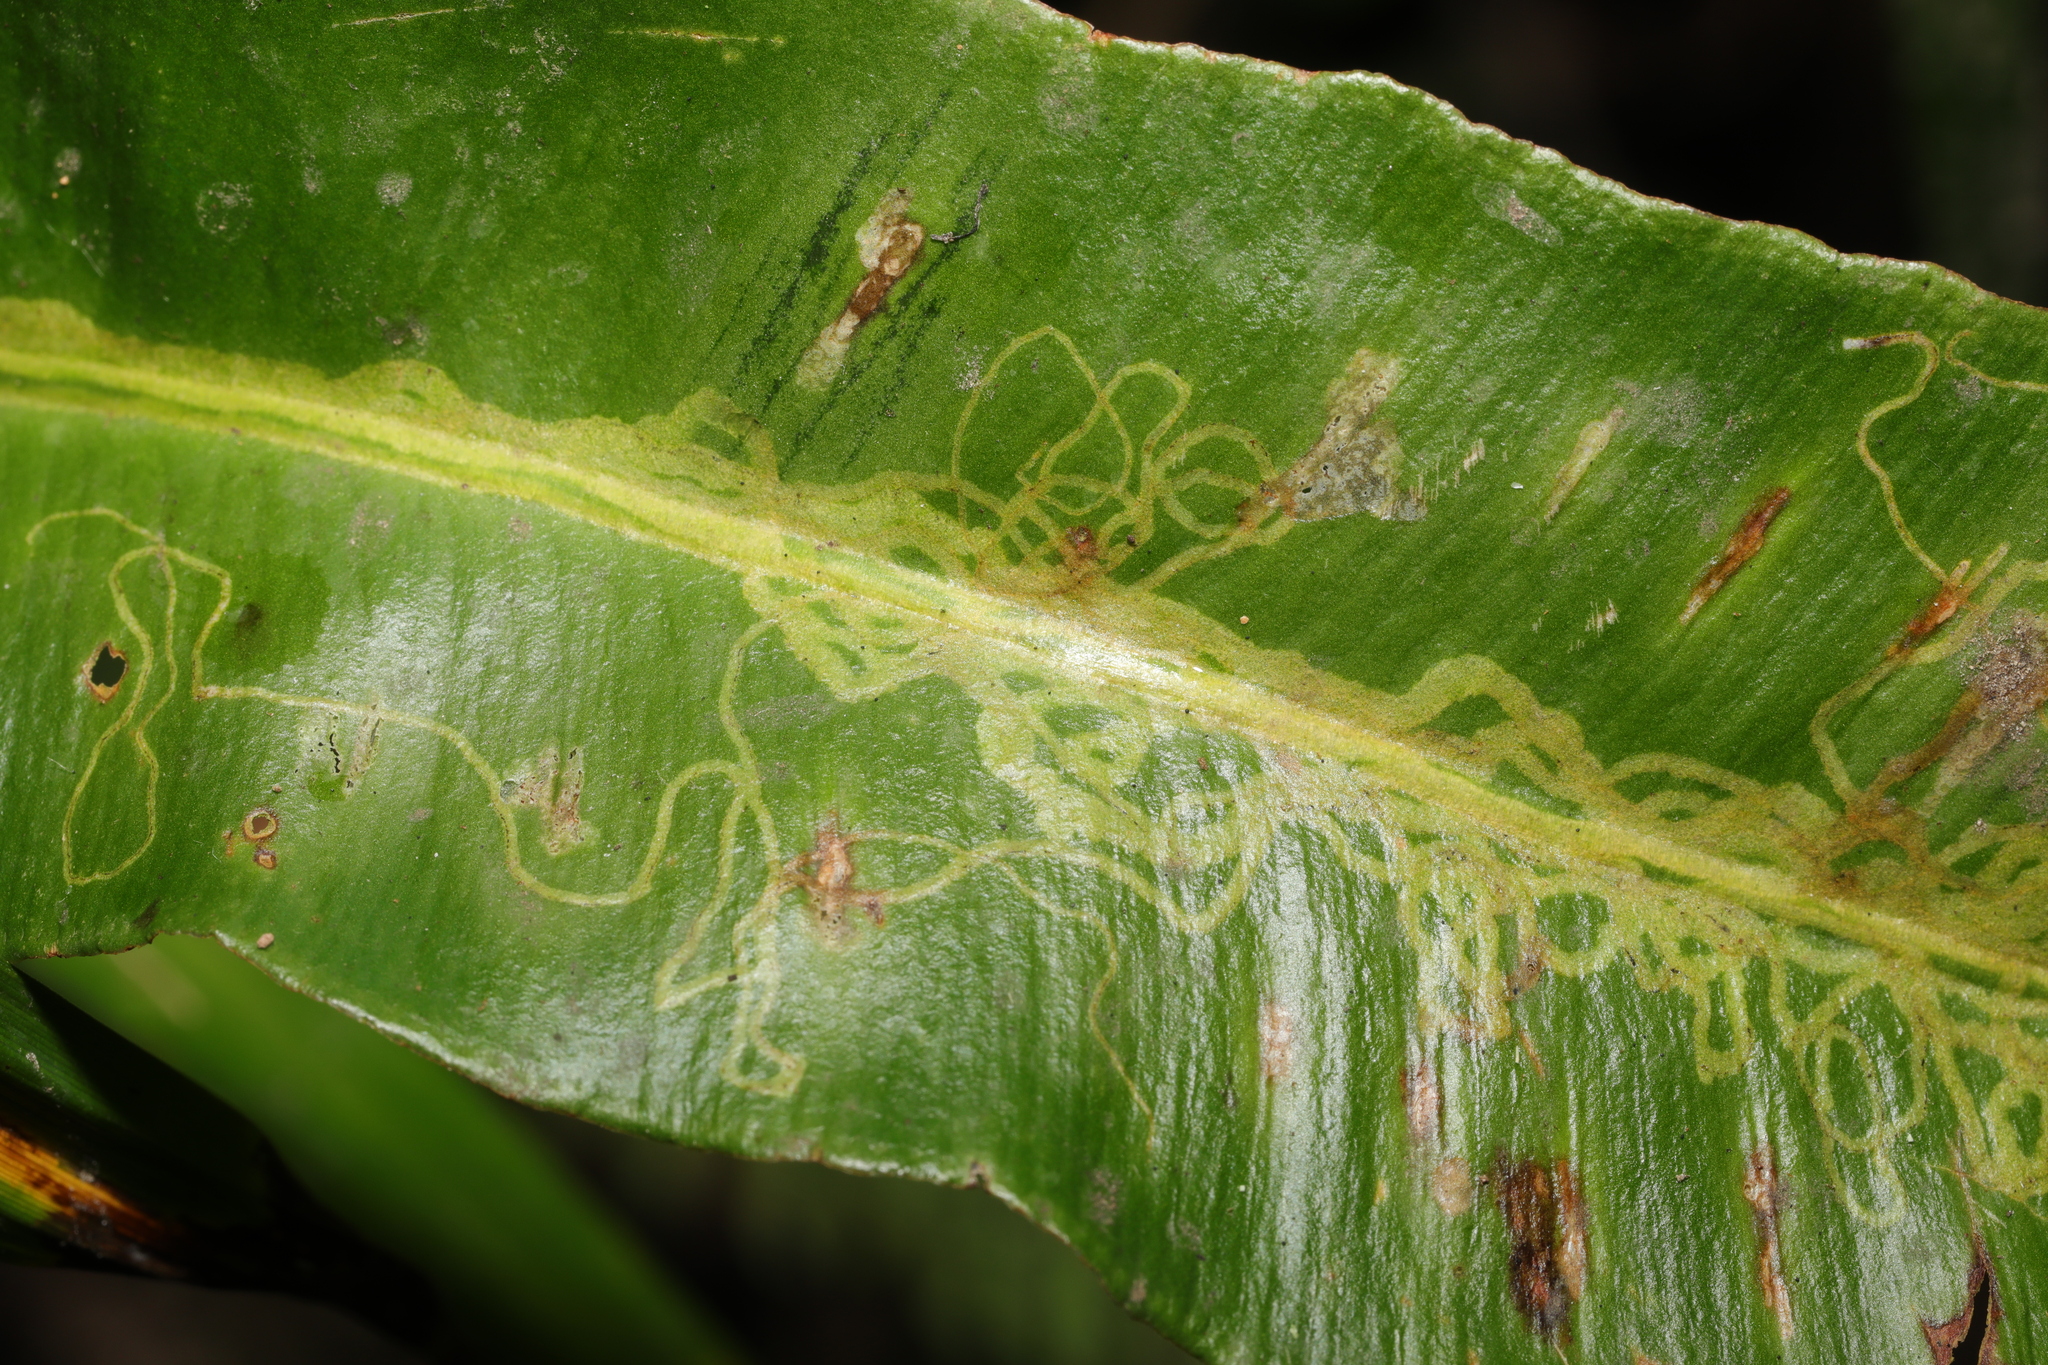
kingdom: Animalia
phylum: Arthropoda
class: Insecta
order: Diptera
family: Agromyzidae
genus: Phytomyza
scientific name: Phytomyza scolopendri
